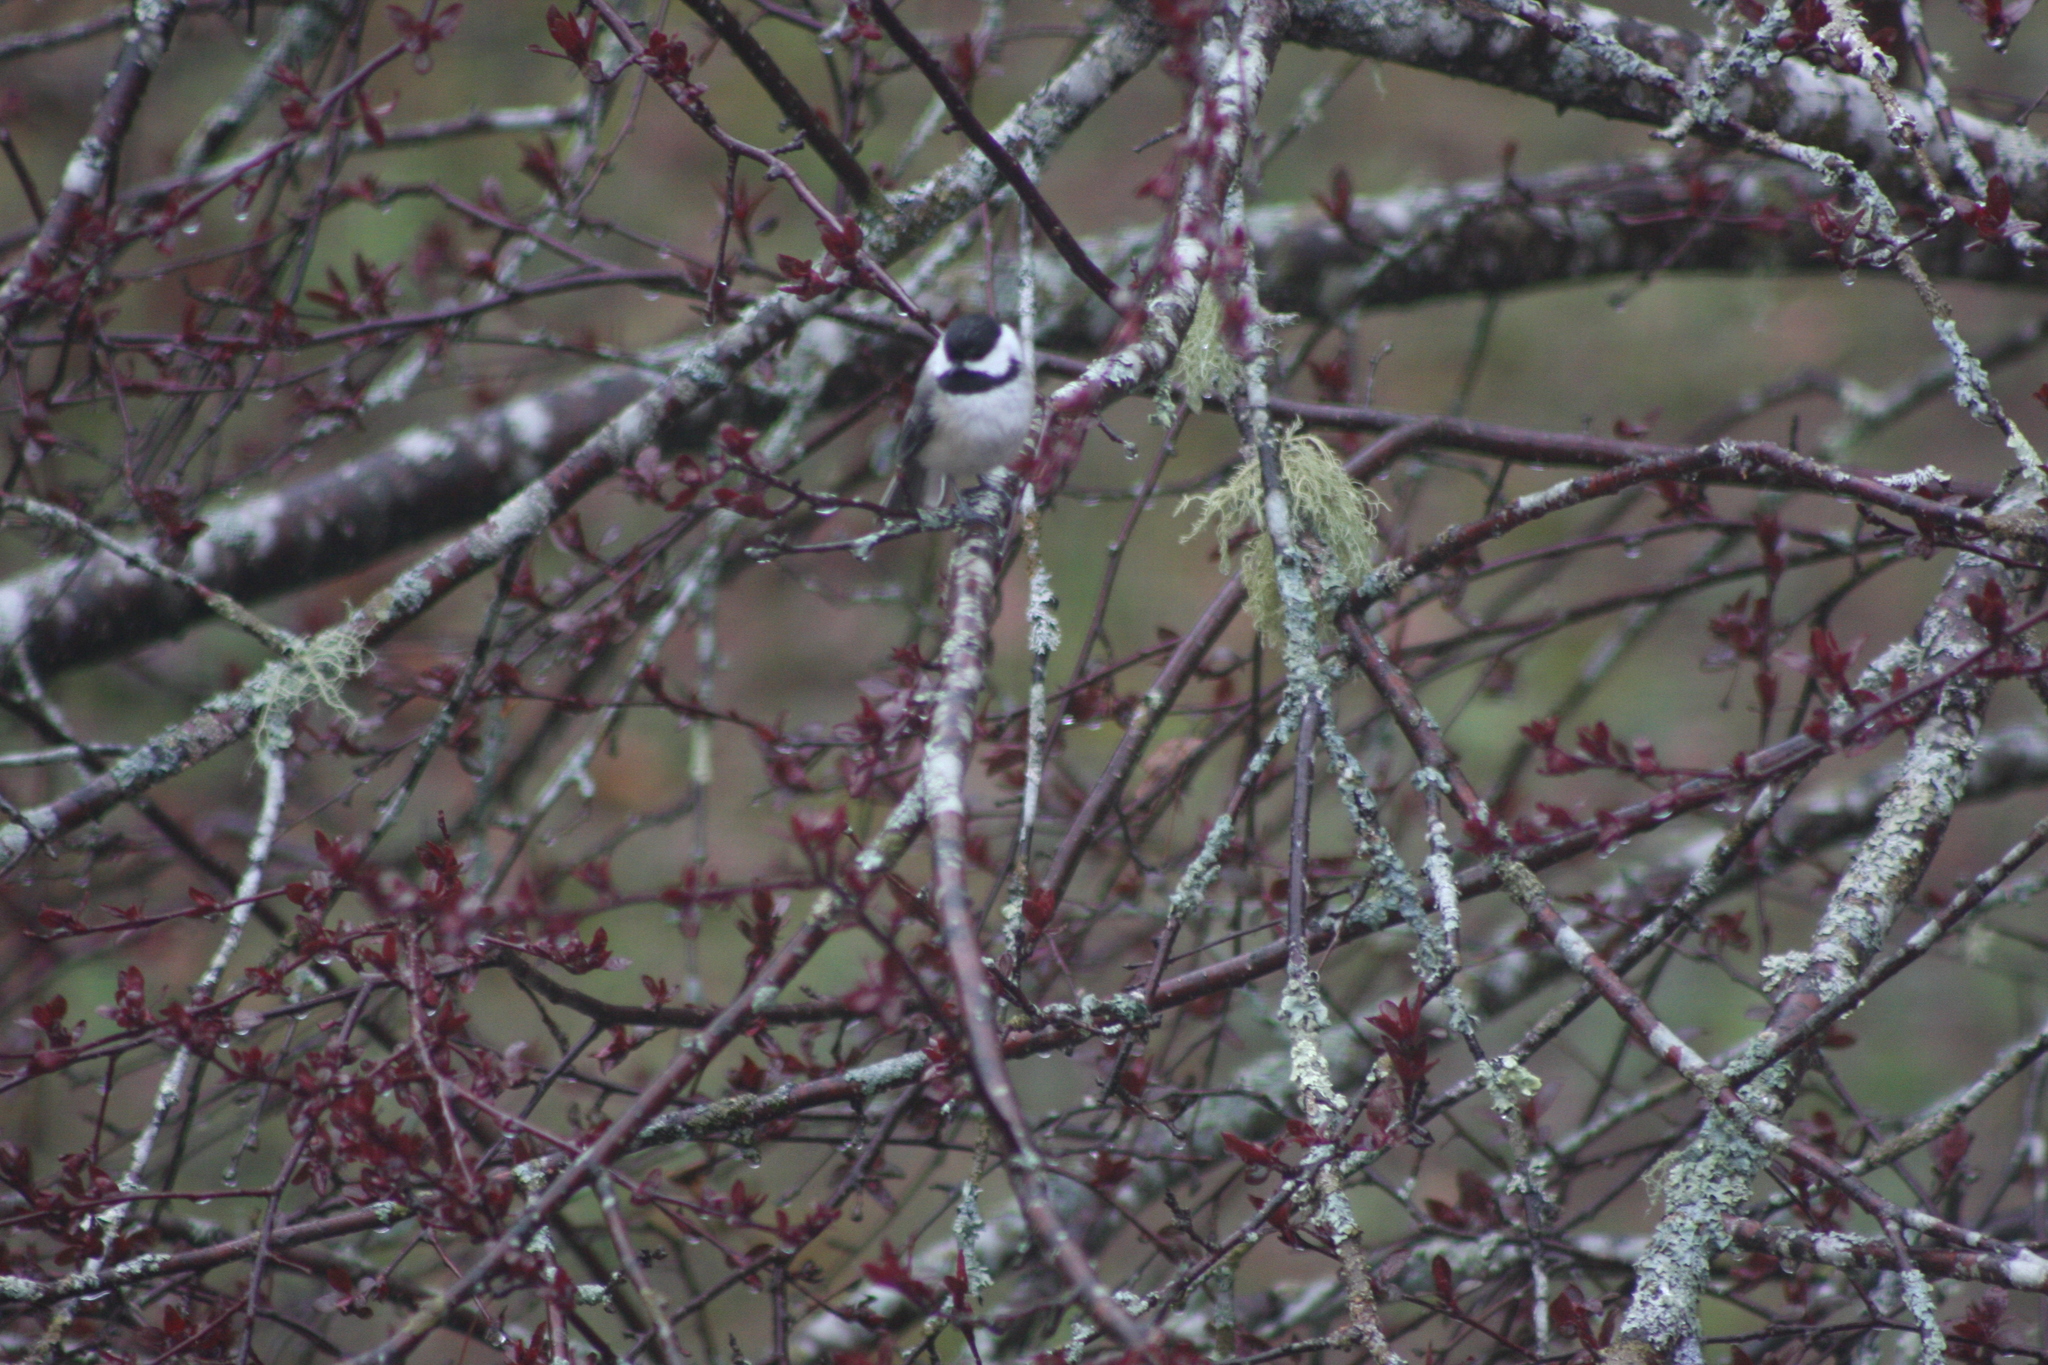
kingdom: Animalia
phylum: Chordata
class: Aves
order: Passeriformes
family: Paridae
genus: Poecile
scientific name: Poecile atricapillus
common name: Black-capped chickadee
